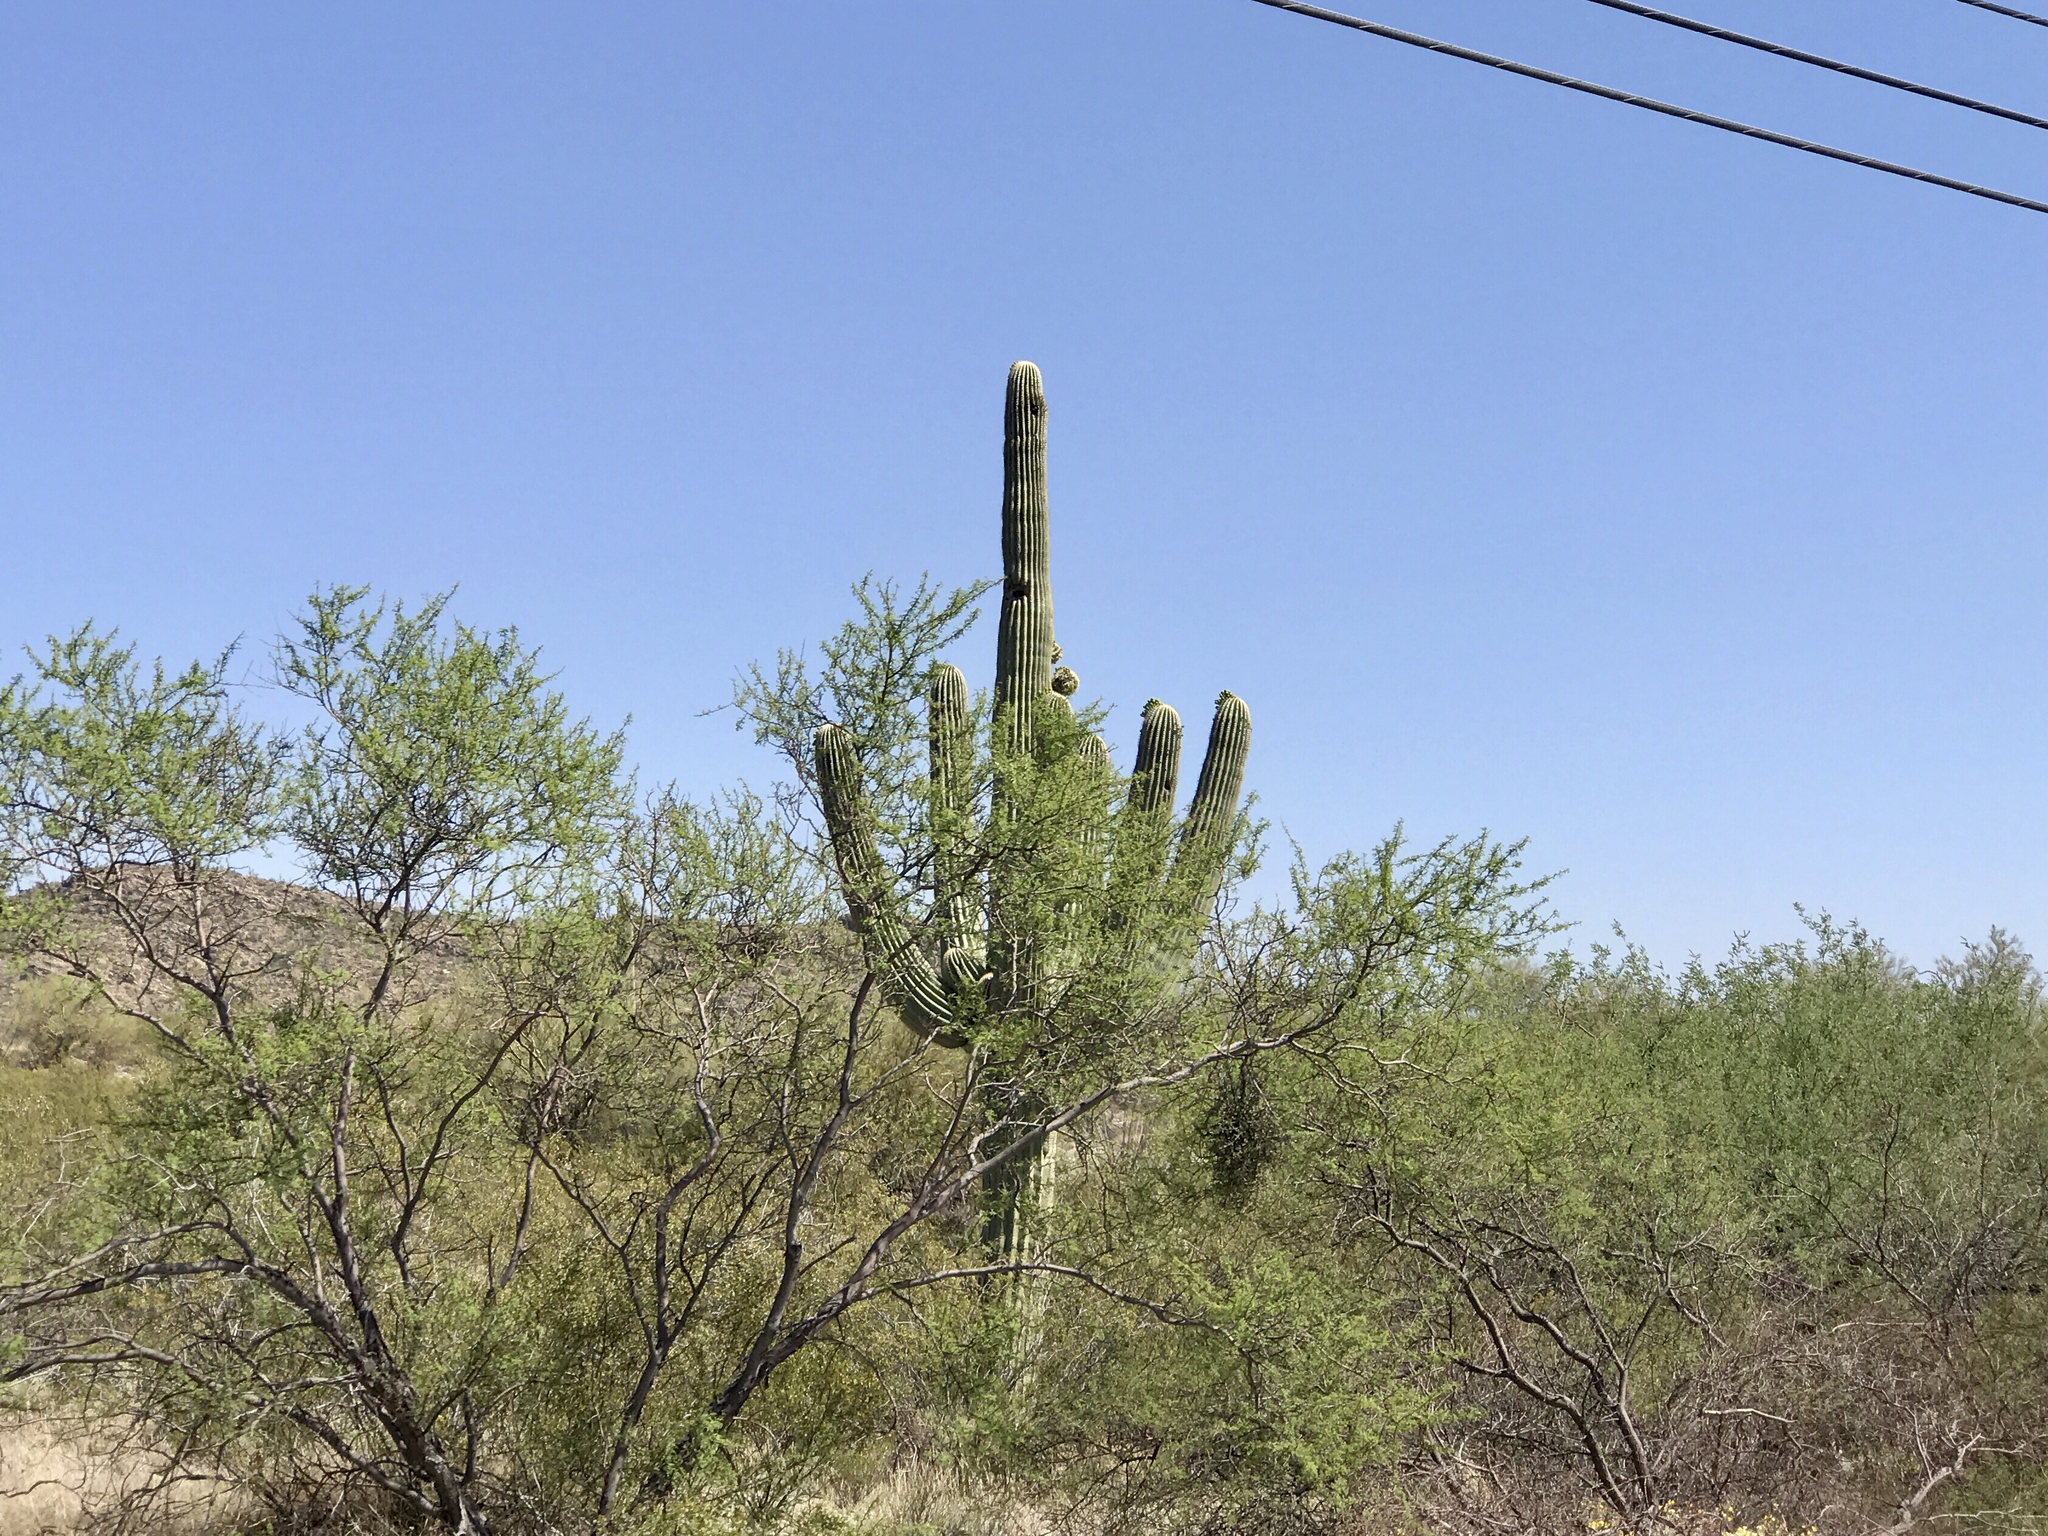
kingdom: Plantae
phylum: Tracheophyta
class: Magnoliopsida
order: Caryophyllales
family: Cactaceae
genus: Carnegiea
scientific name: Carnegiea gigantea
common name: Saguaro
